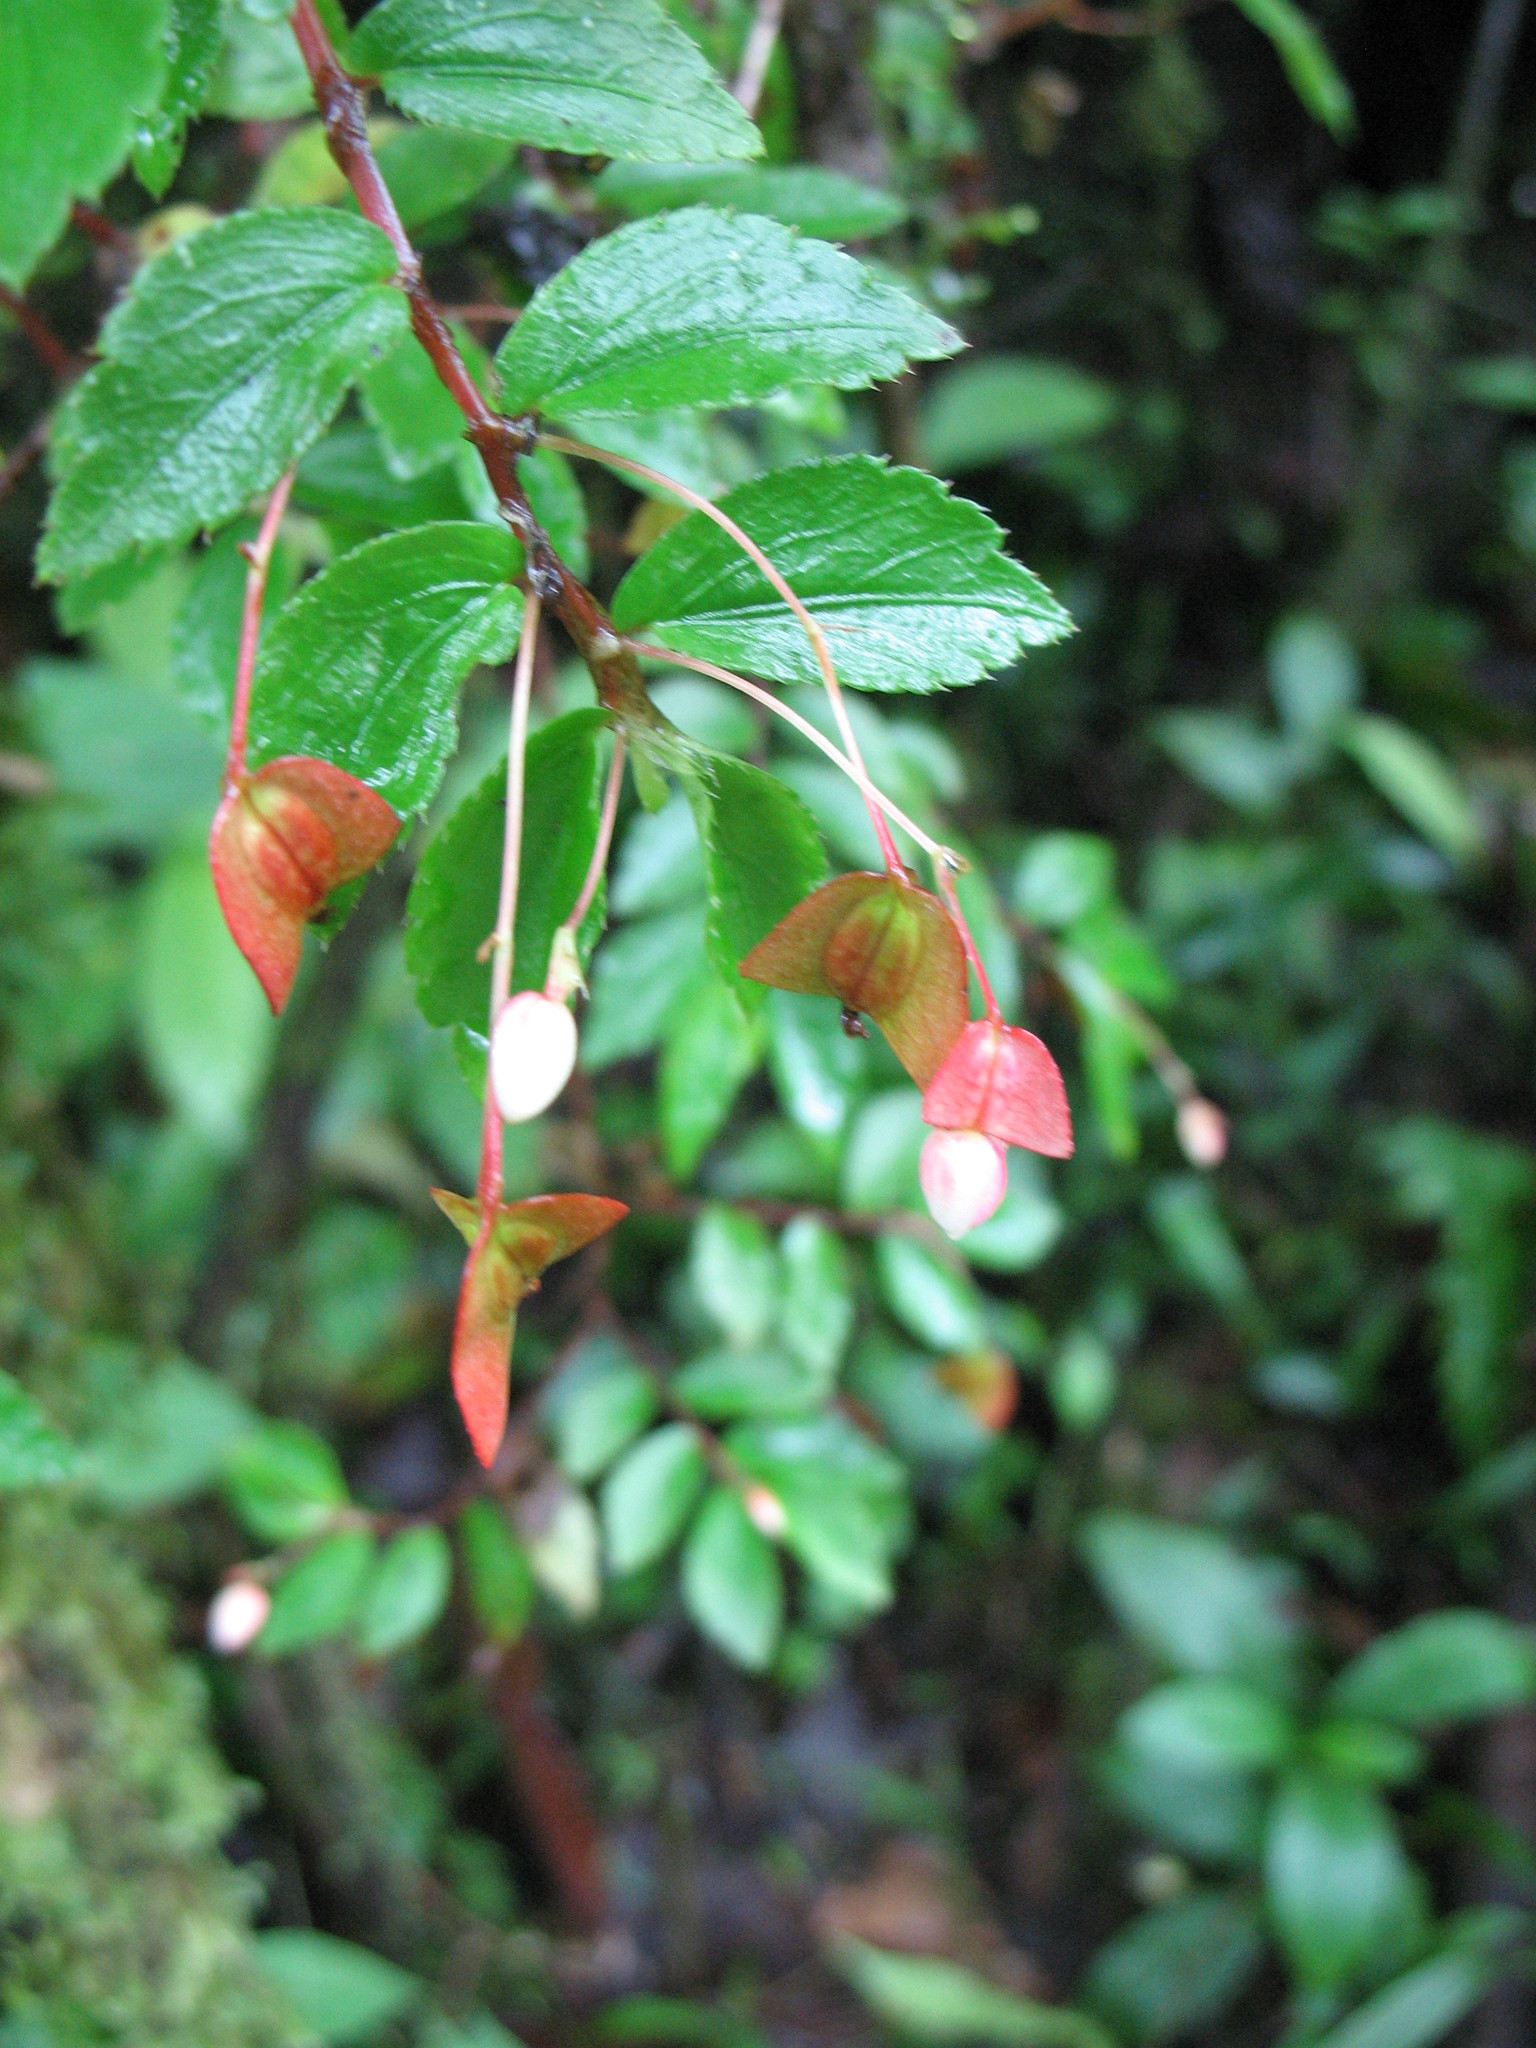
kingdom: Plantae
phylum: Tracheophyta
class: Magnoliopsida
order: Cucurbitales
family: Begoniaceae
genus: Begonia
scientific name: Begonia foliosa
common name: Fern begonia
